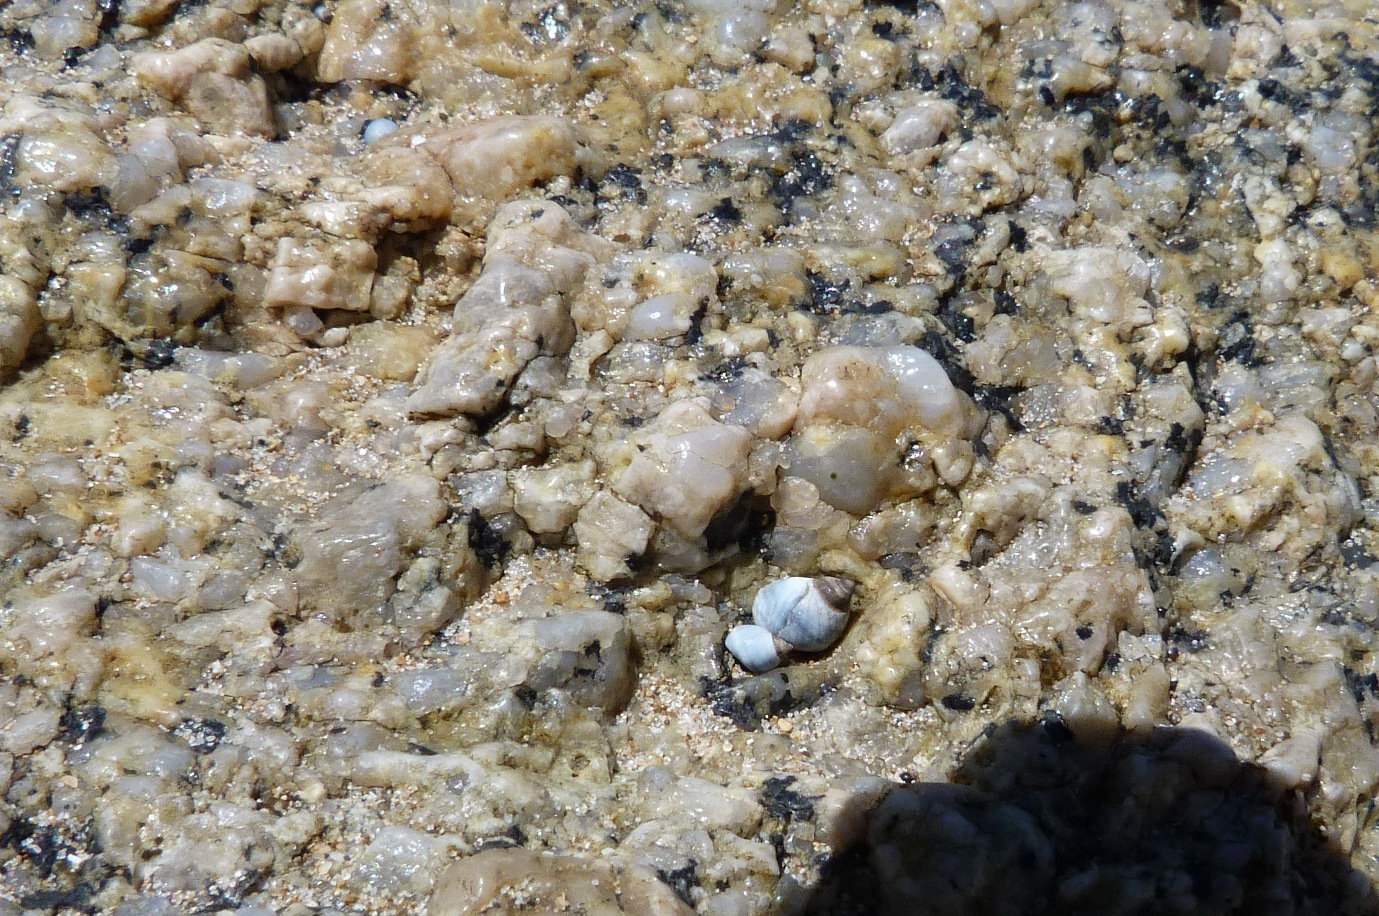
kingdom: Animalia
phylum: Mollusca
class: Gastropoda
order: Littorinimorpha
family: Littorinidae
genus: Austrolittorina
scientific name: Austrolittorina unifasciata
